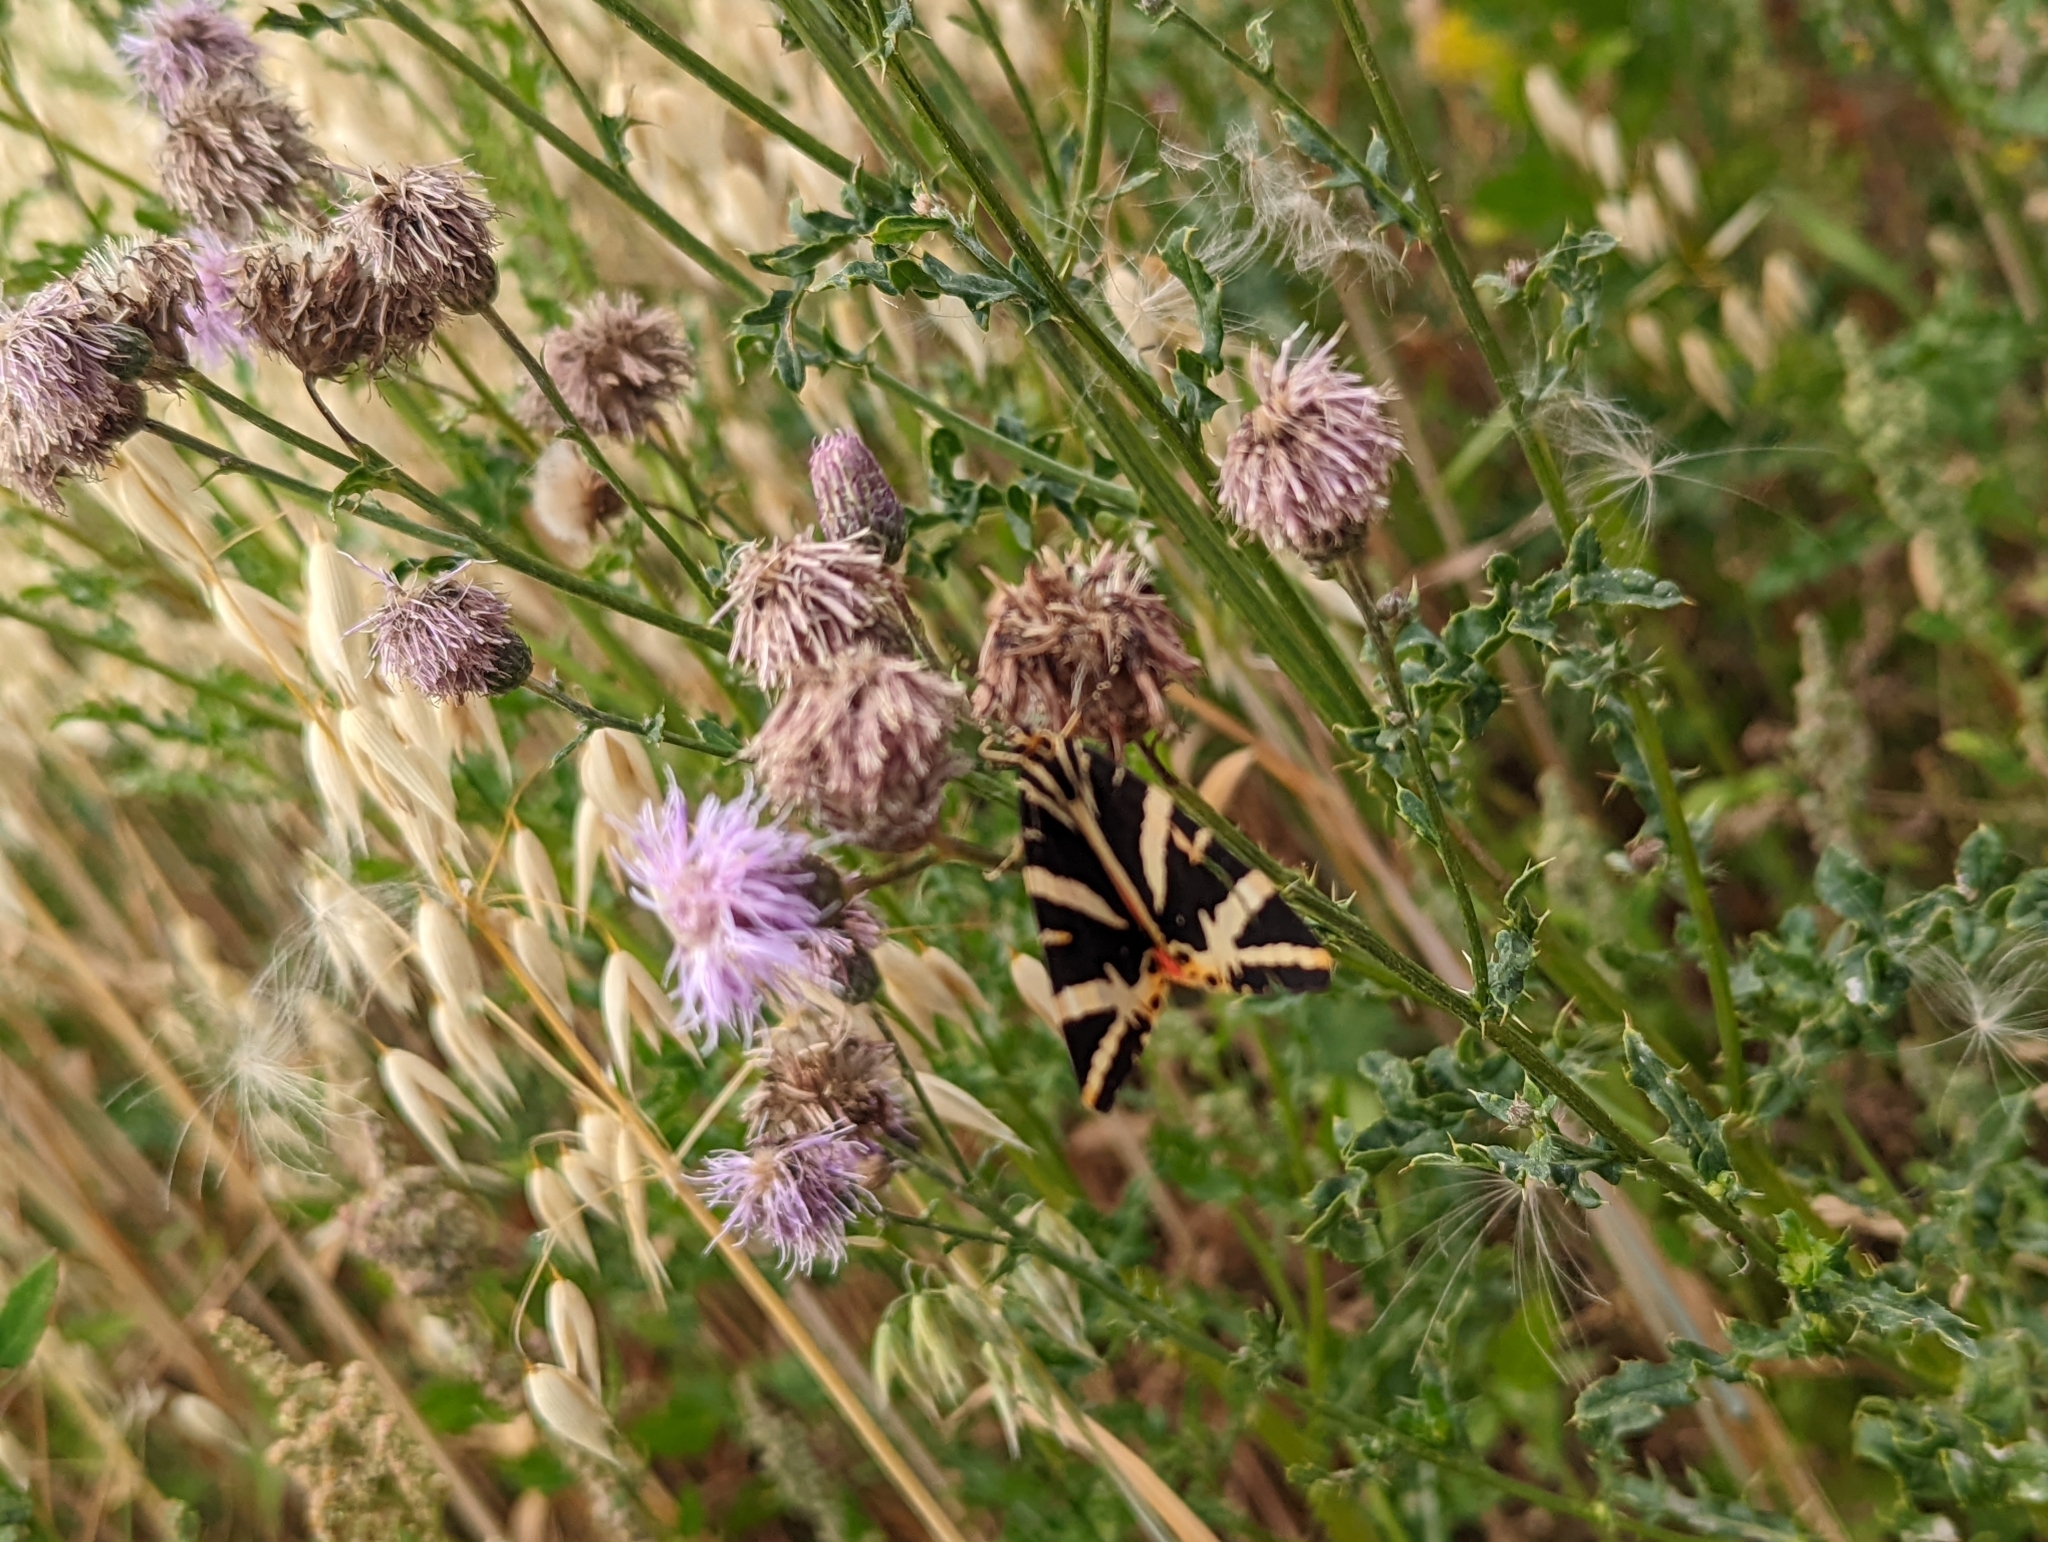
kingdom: Animalia
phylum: Arthropoda
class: Insecta
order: Lepidoptera
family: Erebidae
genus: Euplagia
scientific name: Euplagia quadripunctaria
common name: Jersey tiger
